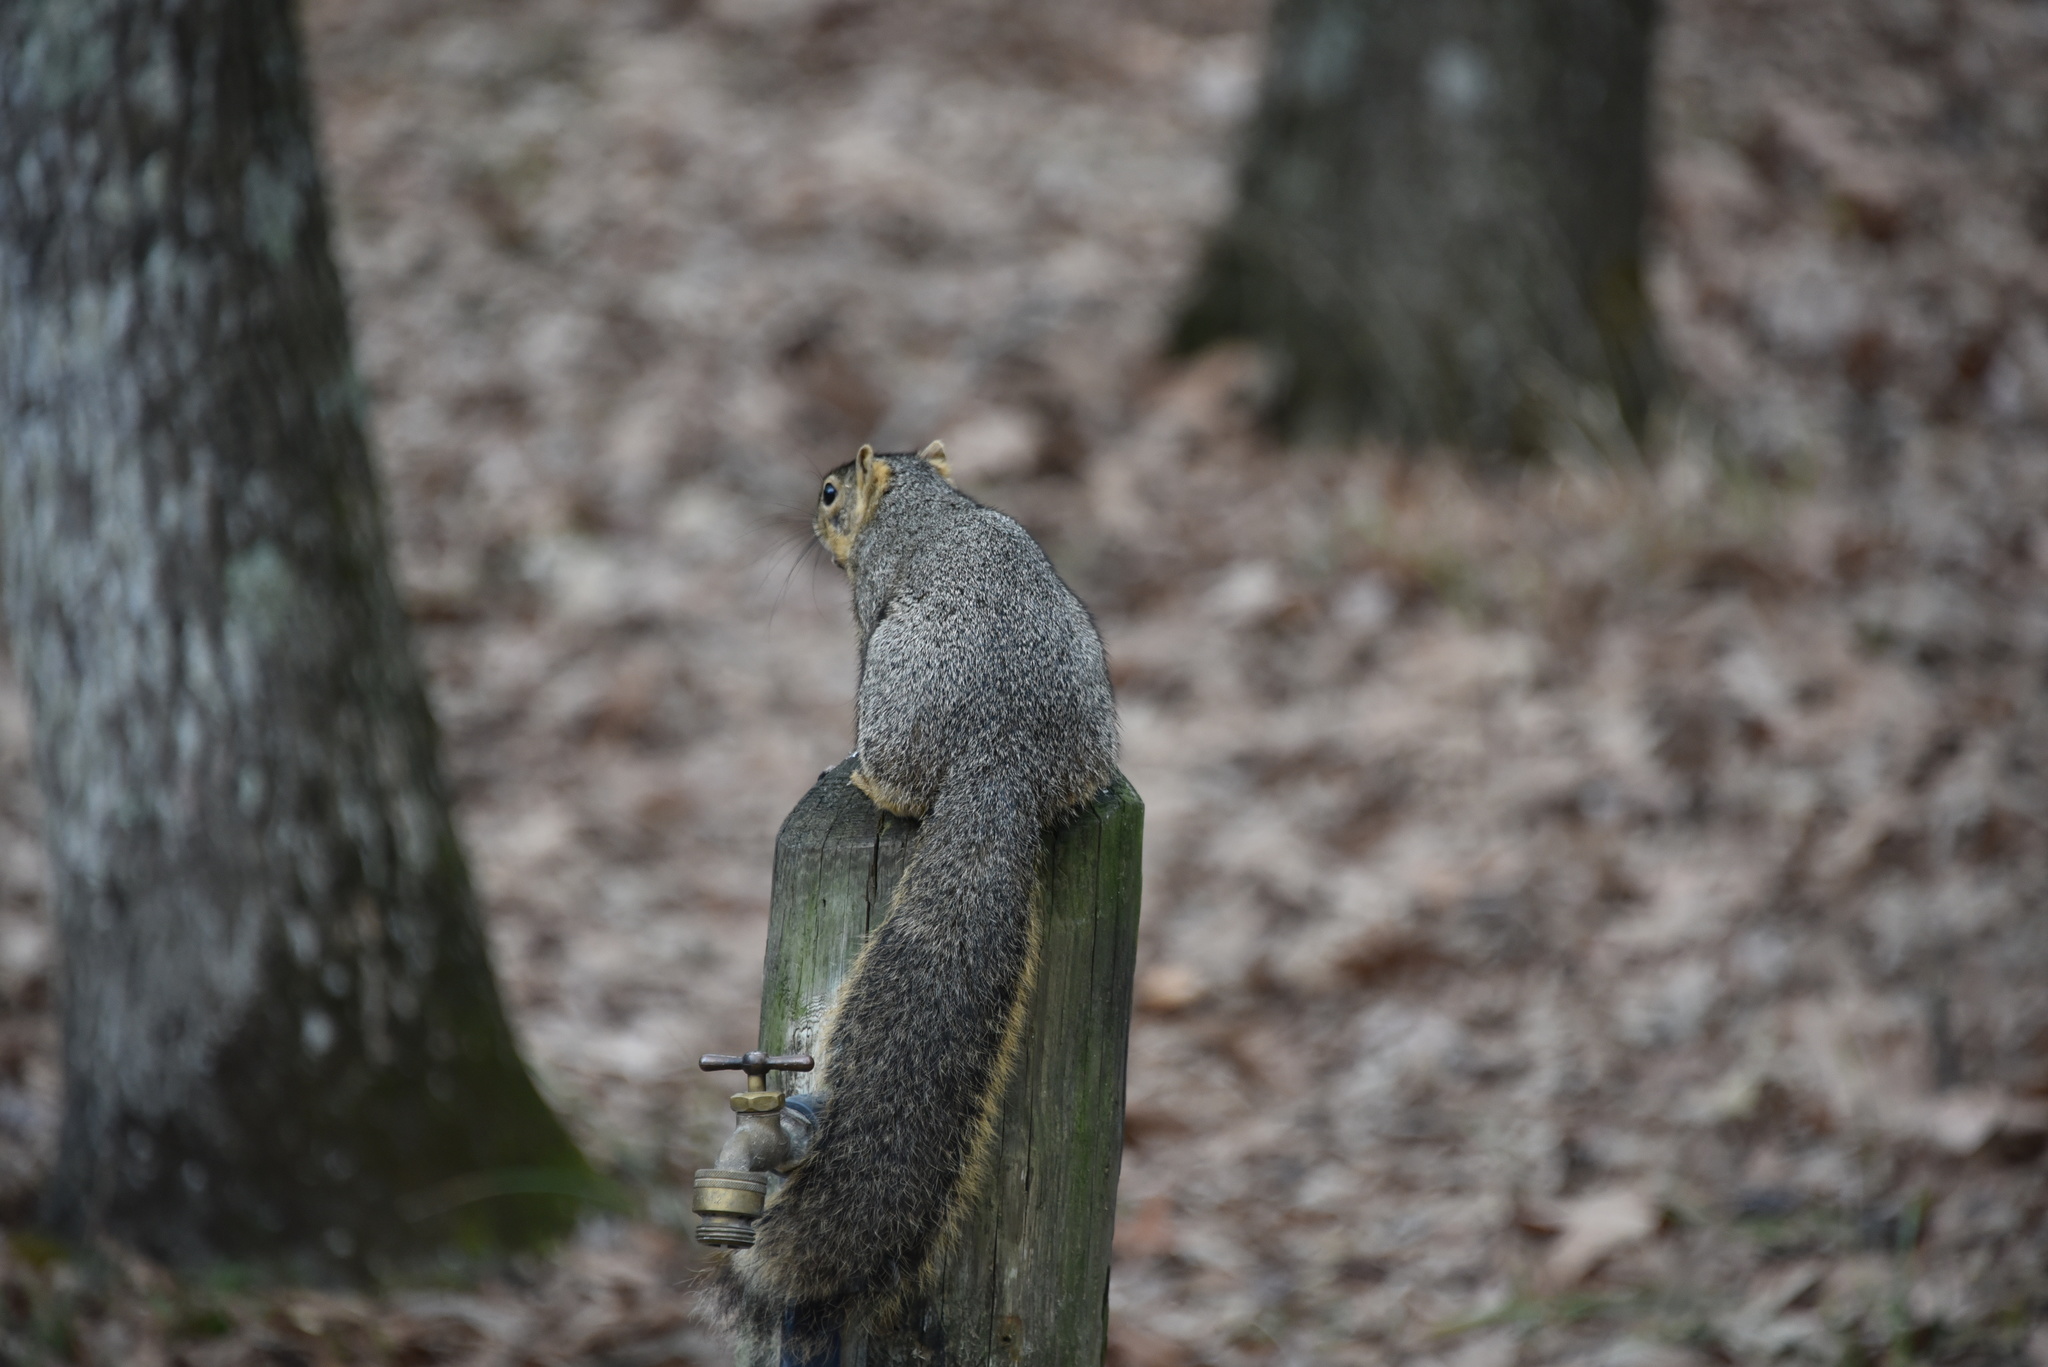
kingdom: Animalia
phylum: Chordata
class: Mammalia
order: Rodentia
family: Sciuridae
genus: Sciurus
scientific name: Sciurus niger
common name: Fox squirrel
